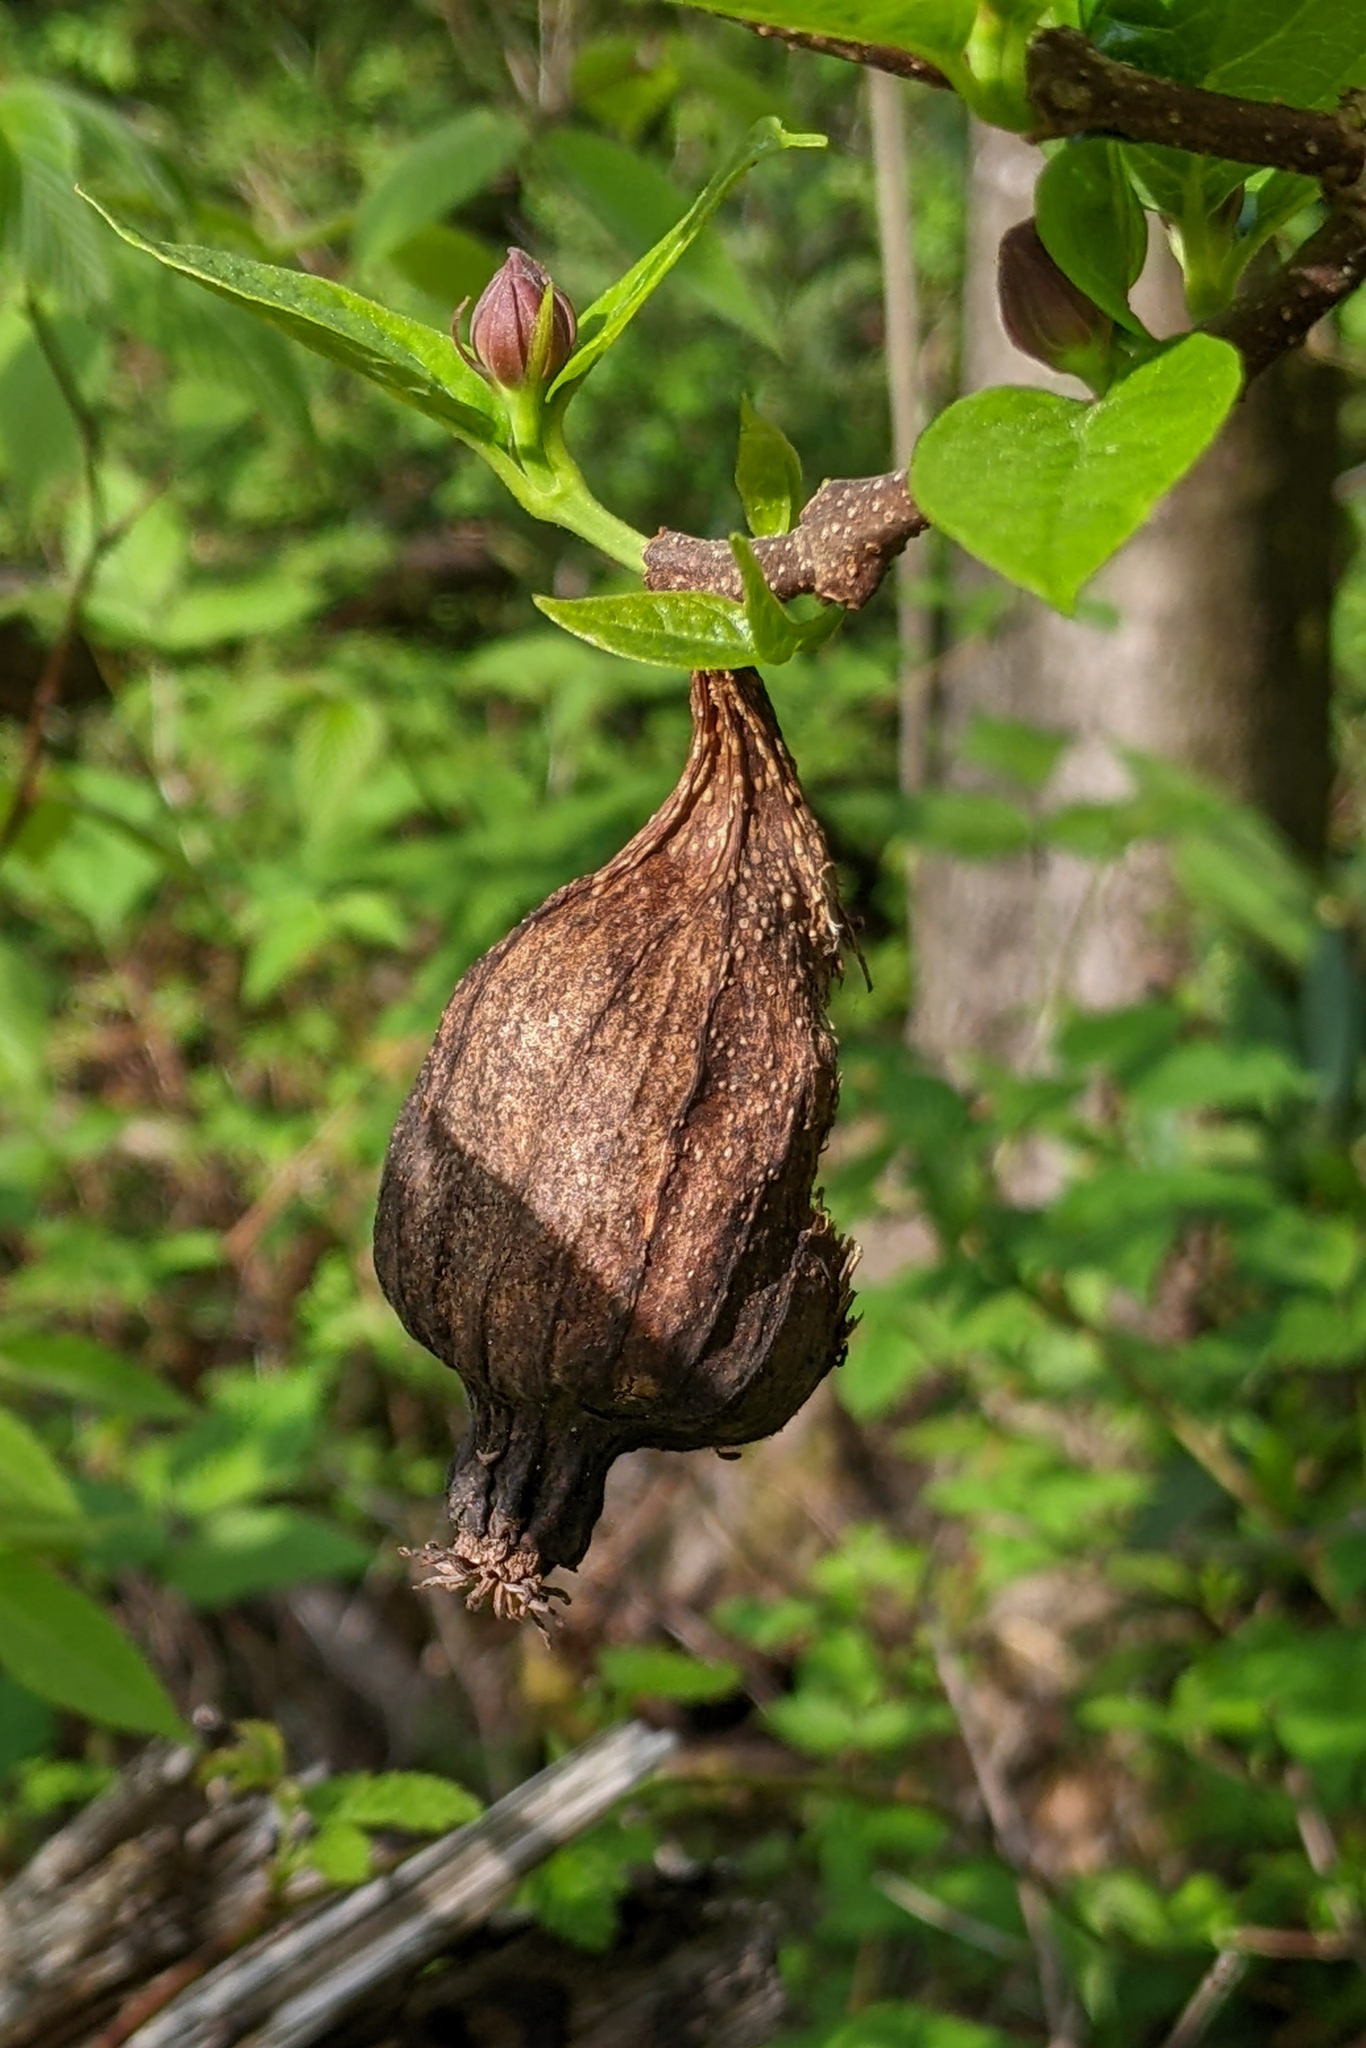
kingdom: Plantae
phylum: Tracheophyta
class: Magnoliopsida
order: Laurales
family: Calycanthaceae
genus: Calycanthus
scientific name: Calycanthus floridus
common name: Carolina-allspice
